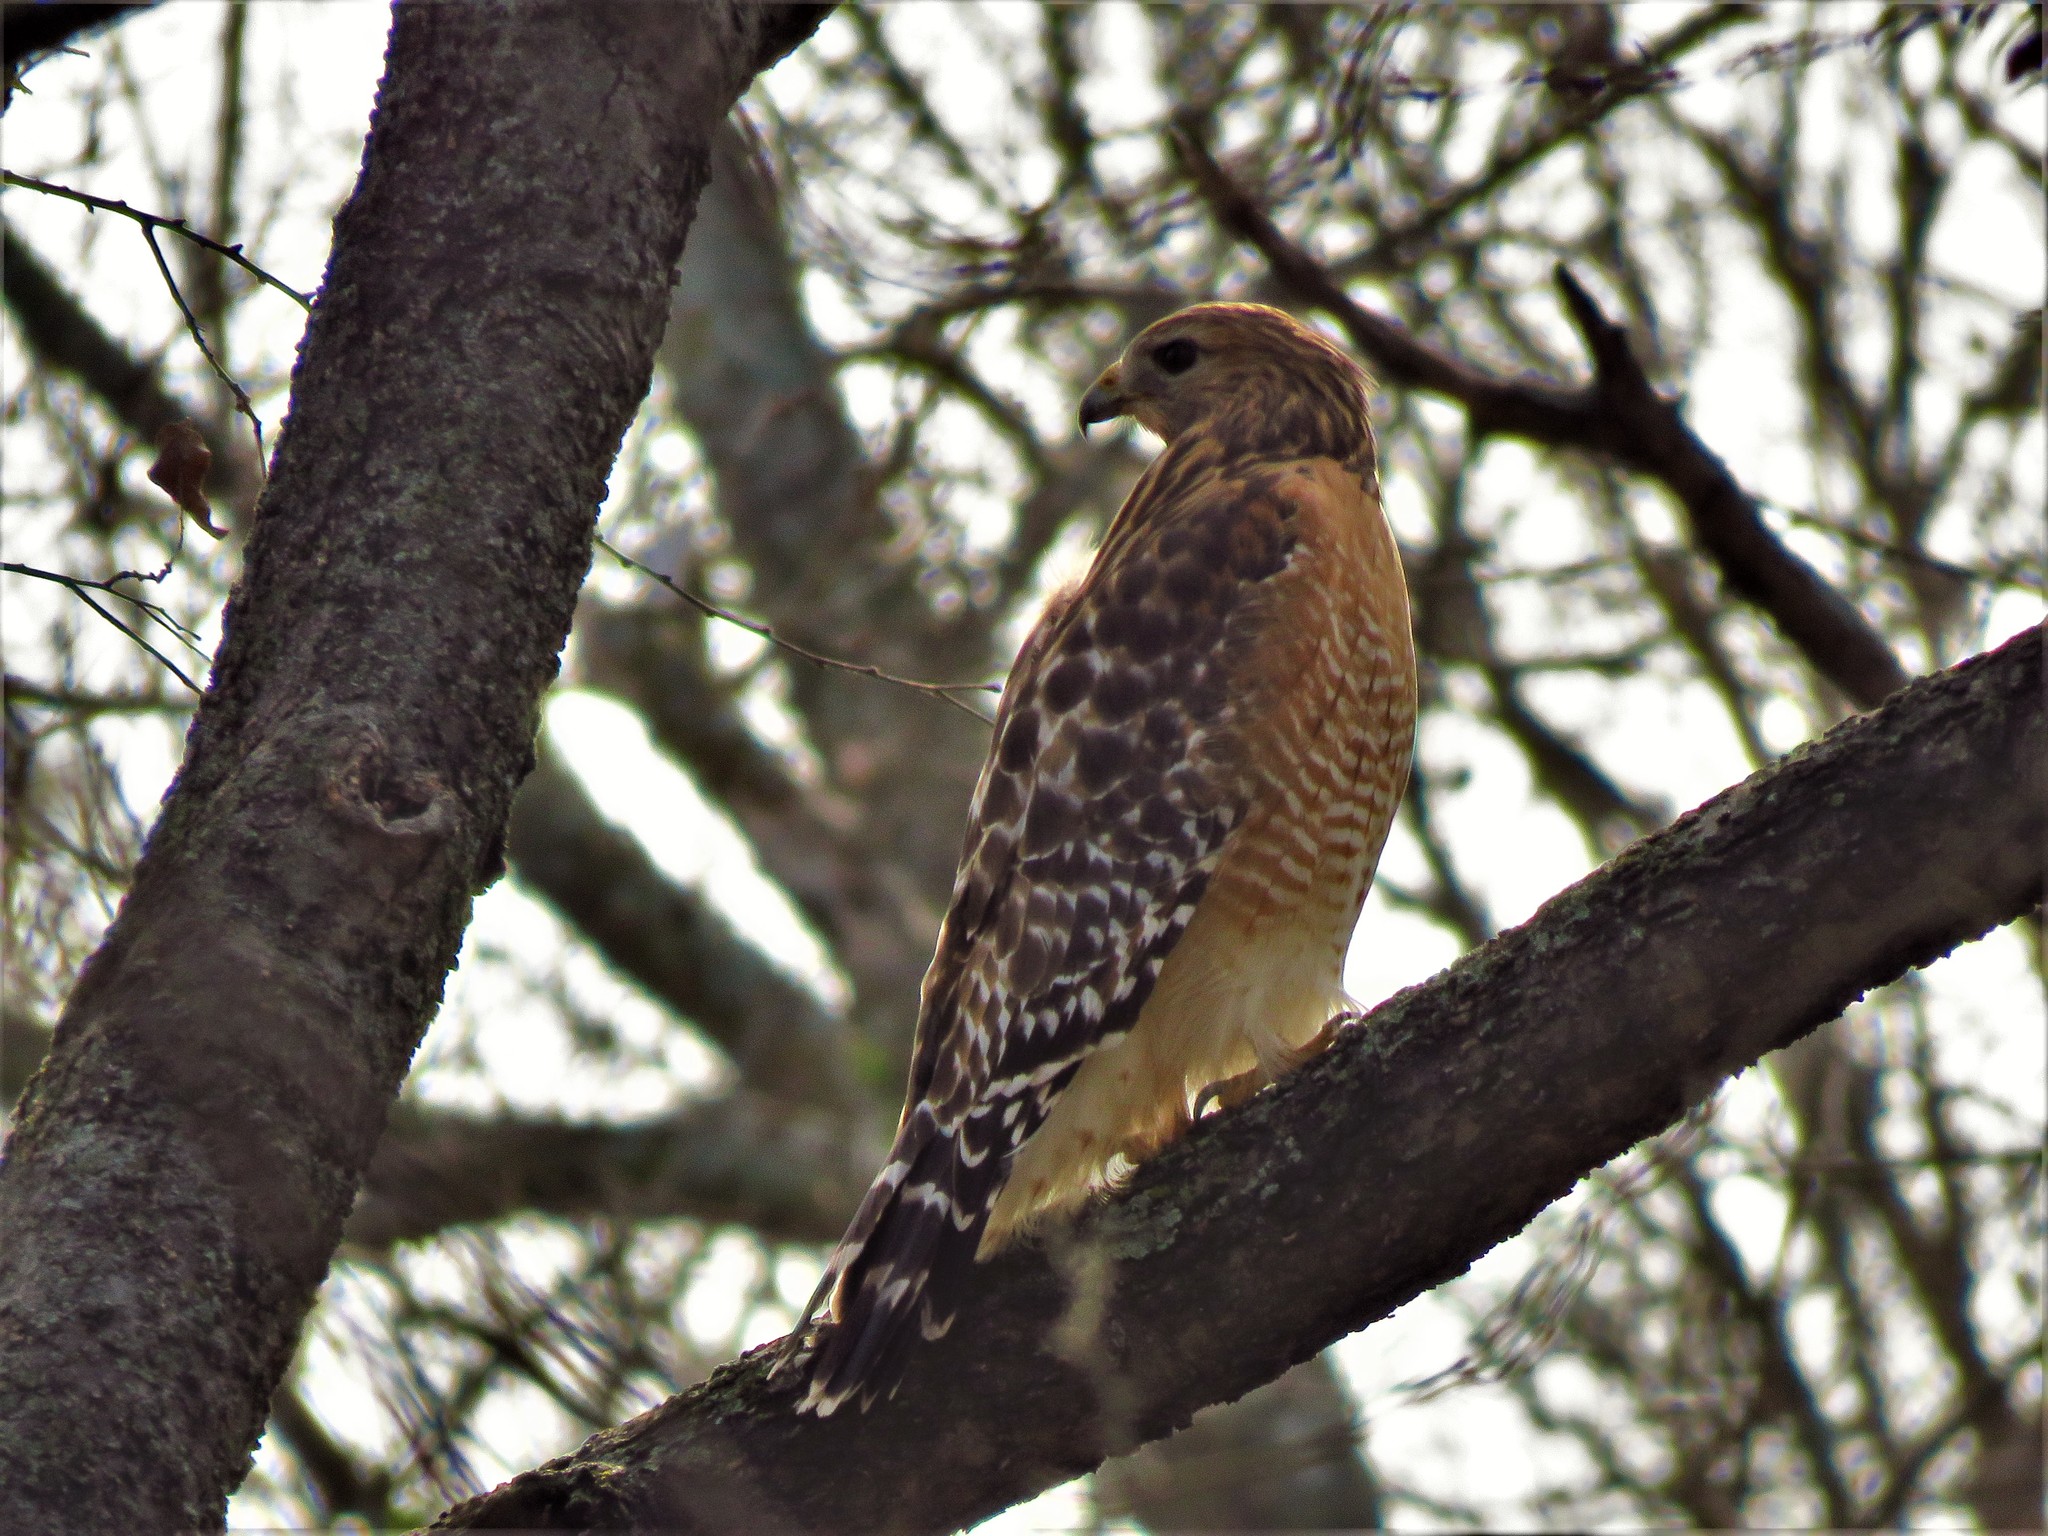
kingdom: Animalia
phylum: Chordata
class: Aves
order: Accipitriformes
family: Accipitridae
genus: Buteo
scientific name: Buteo lineatus
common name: Red-shouldered hawk
